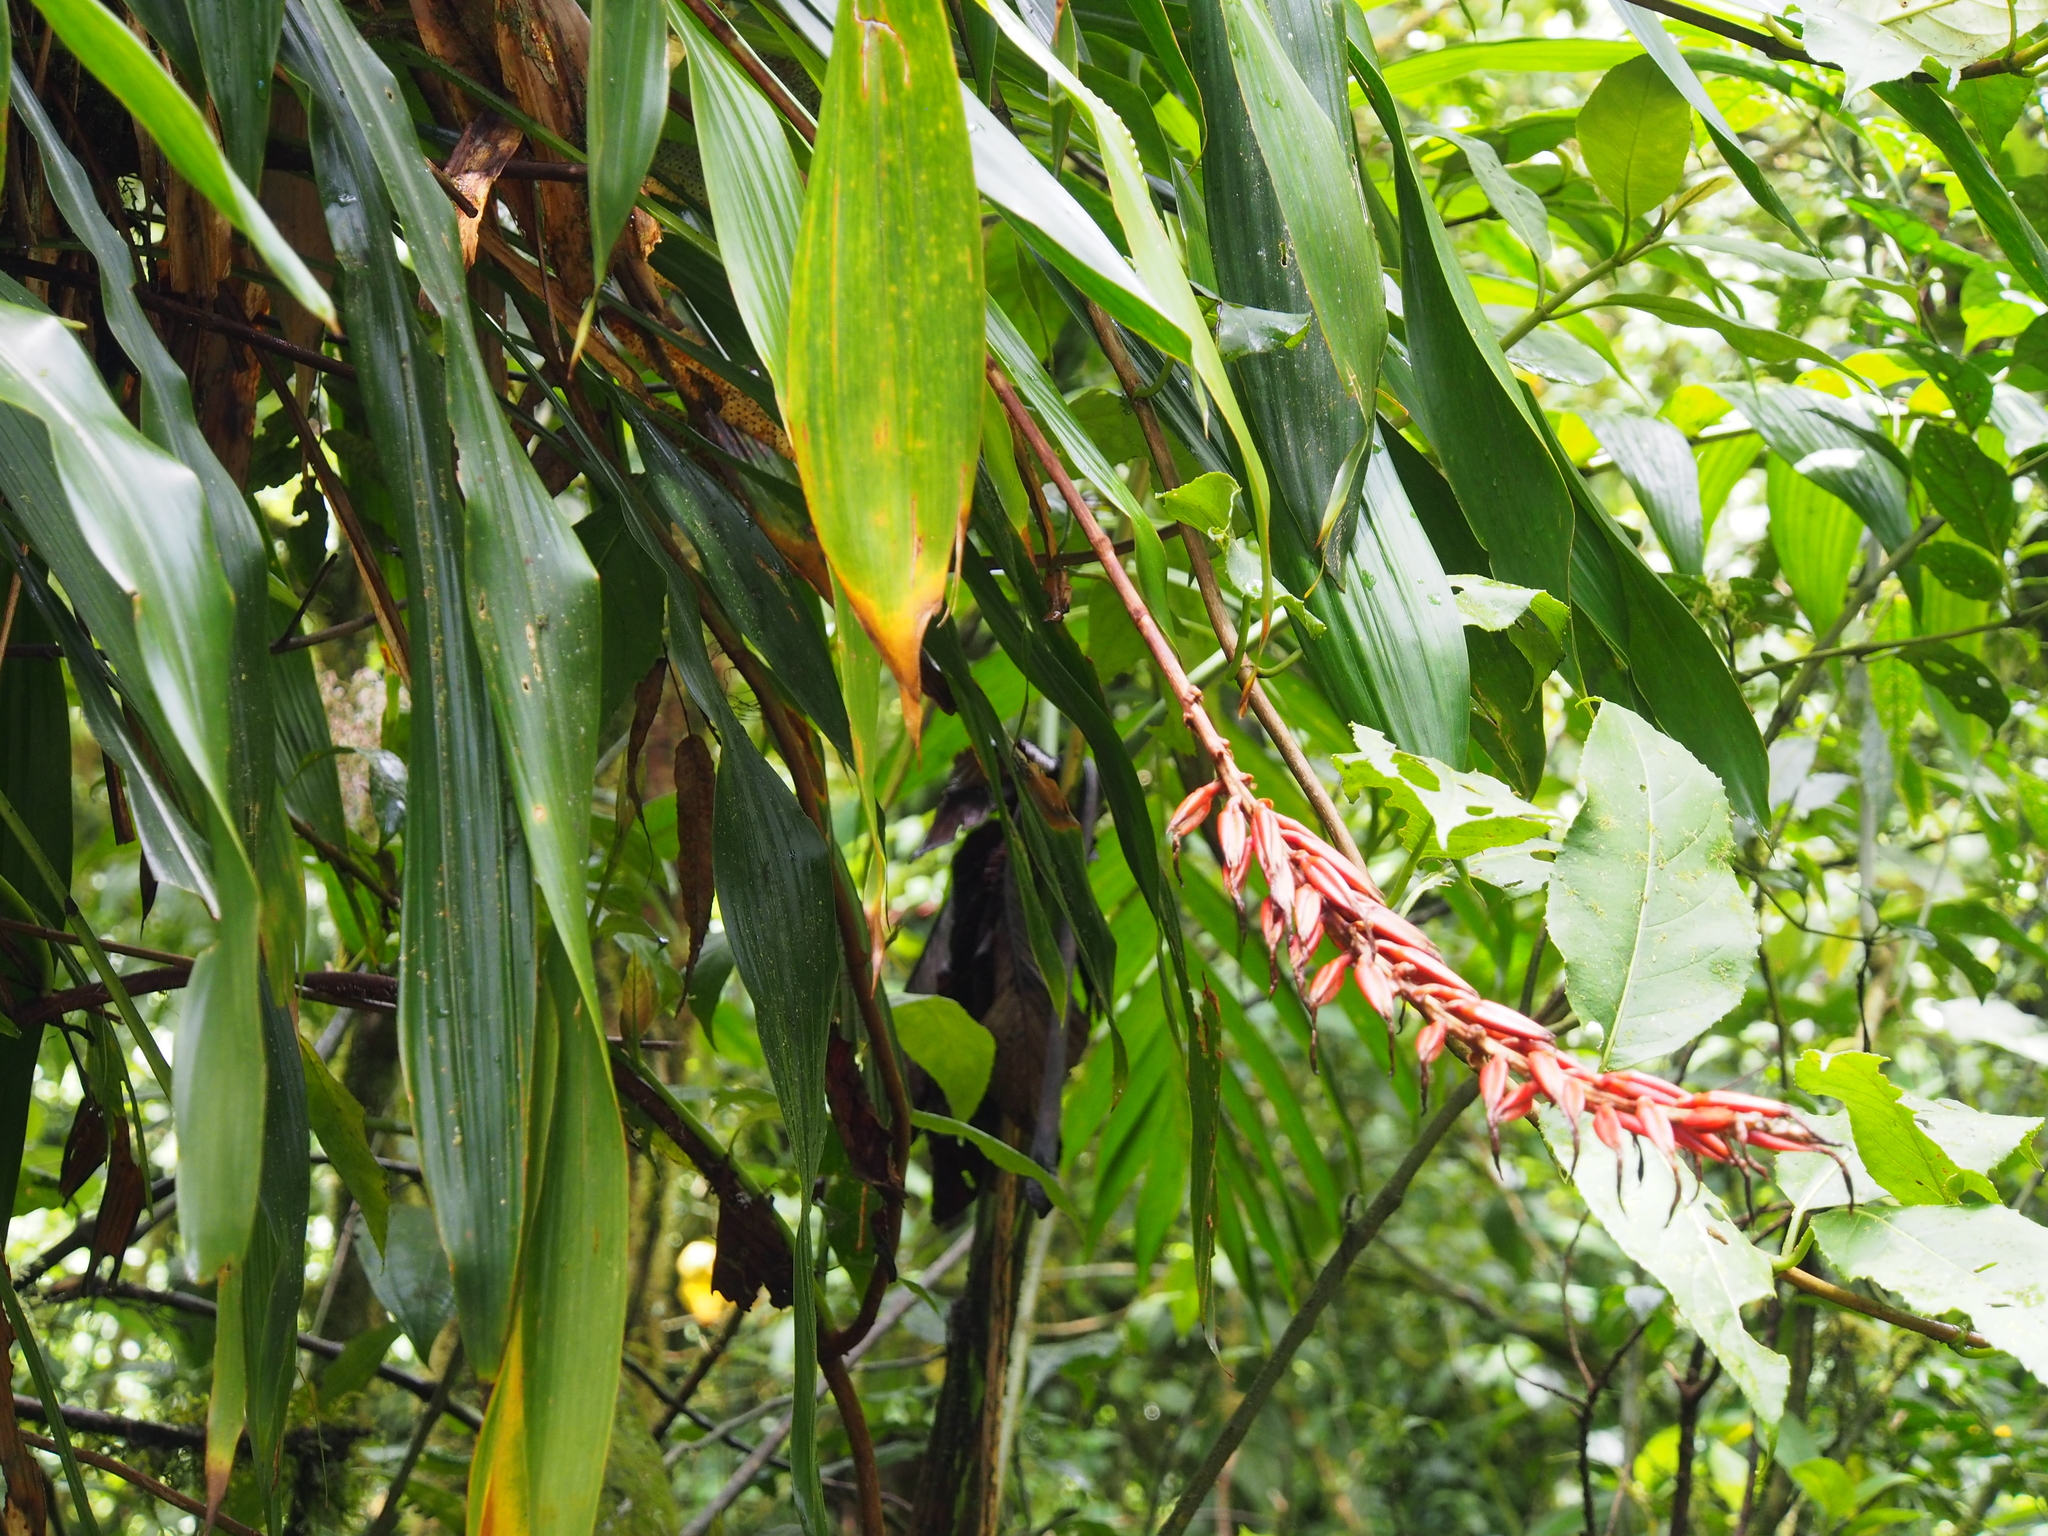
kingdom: Plantae
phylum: Tracheophyta
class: Liliopsida
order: Poales
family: Bromeliaceae
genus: Pitcairnia
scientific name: Pitcairnia brittoniana
